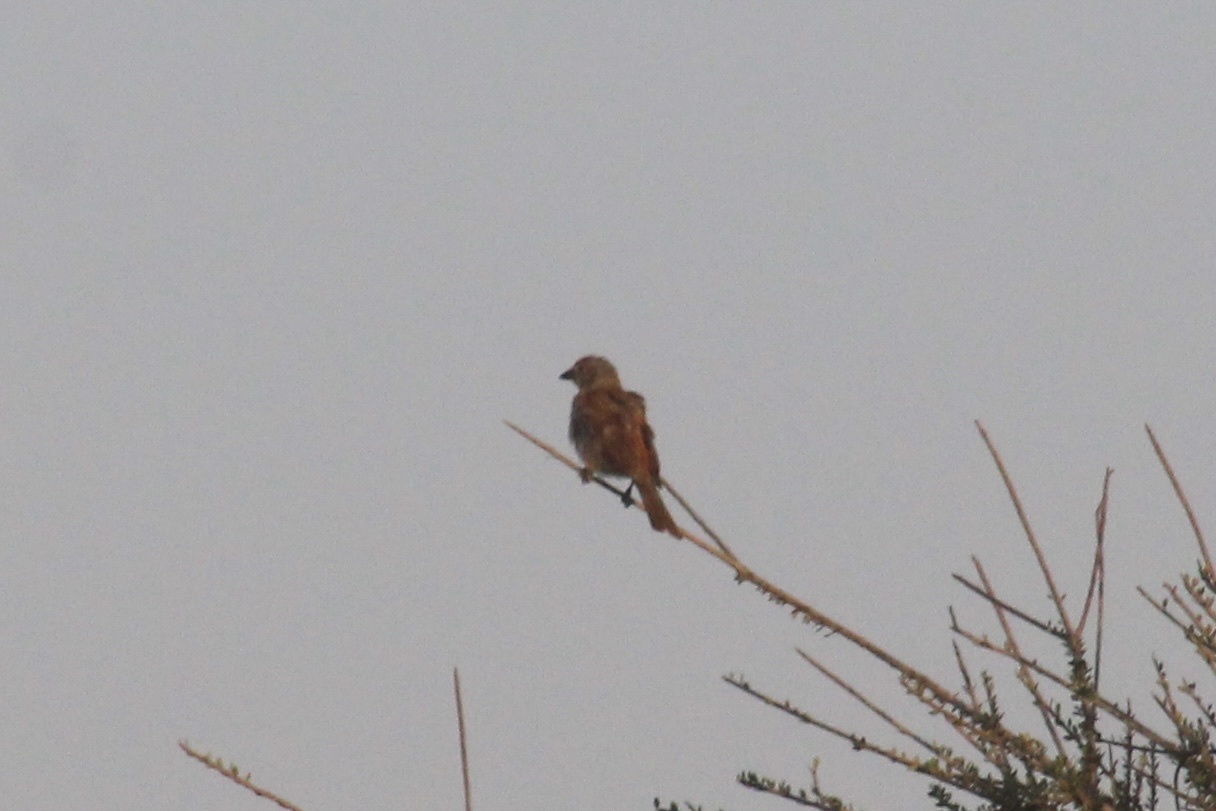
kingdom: Animalia
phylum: Chordata
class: Aves
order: Passeriformes
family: Passeridae
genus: Passer
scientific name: Passer diffusus
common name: Southern grey-headed sparrow
